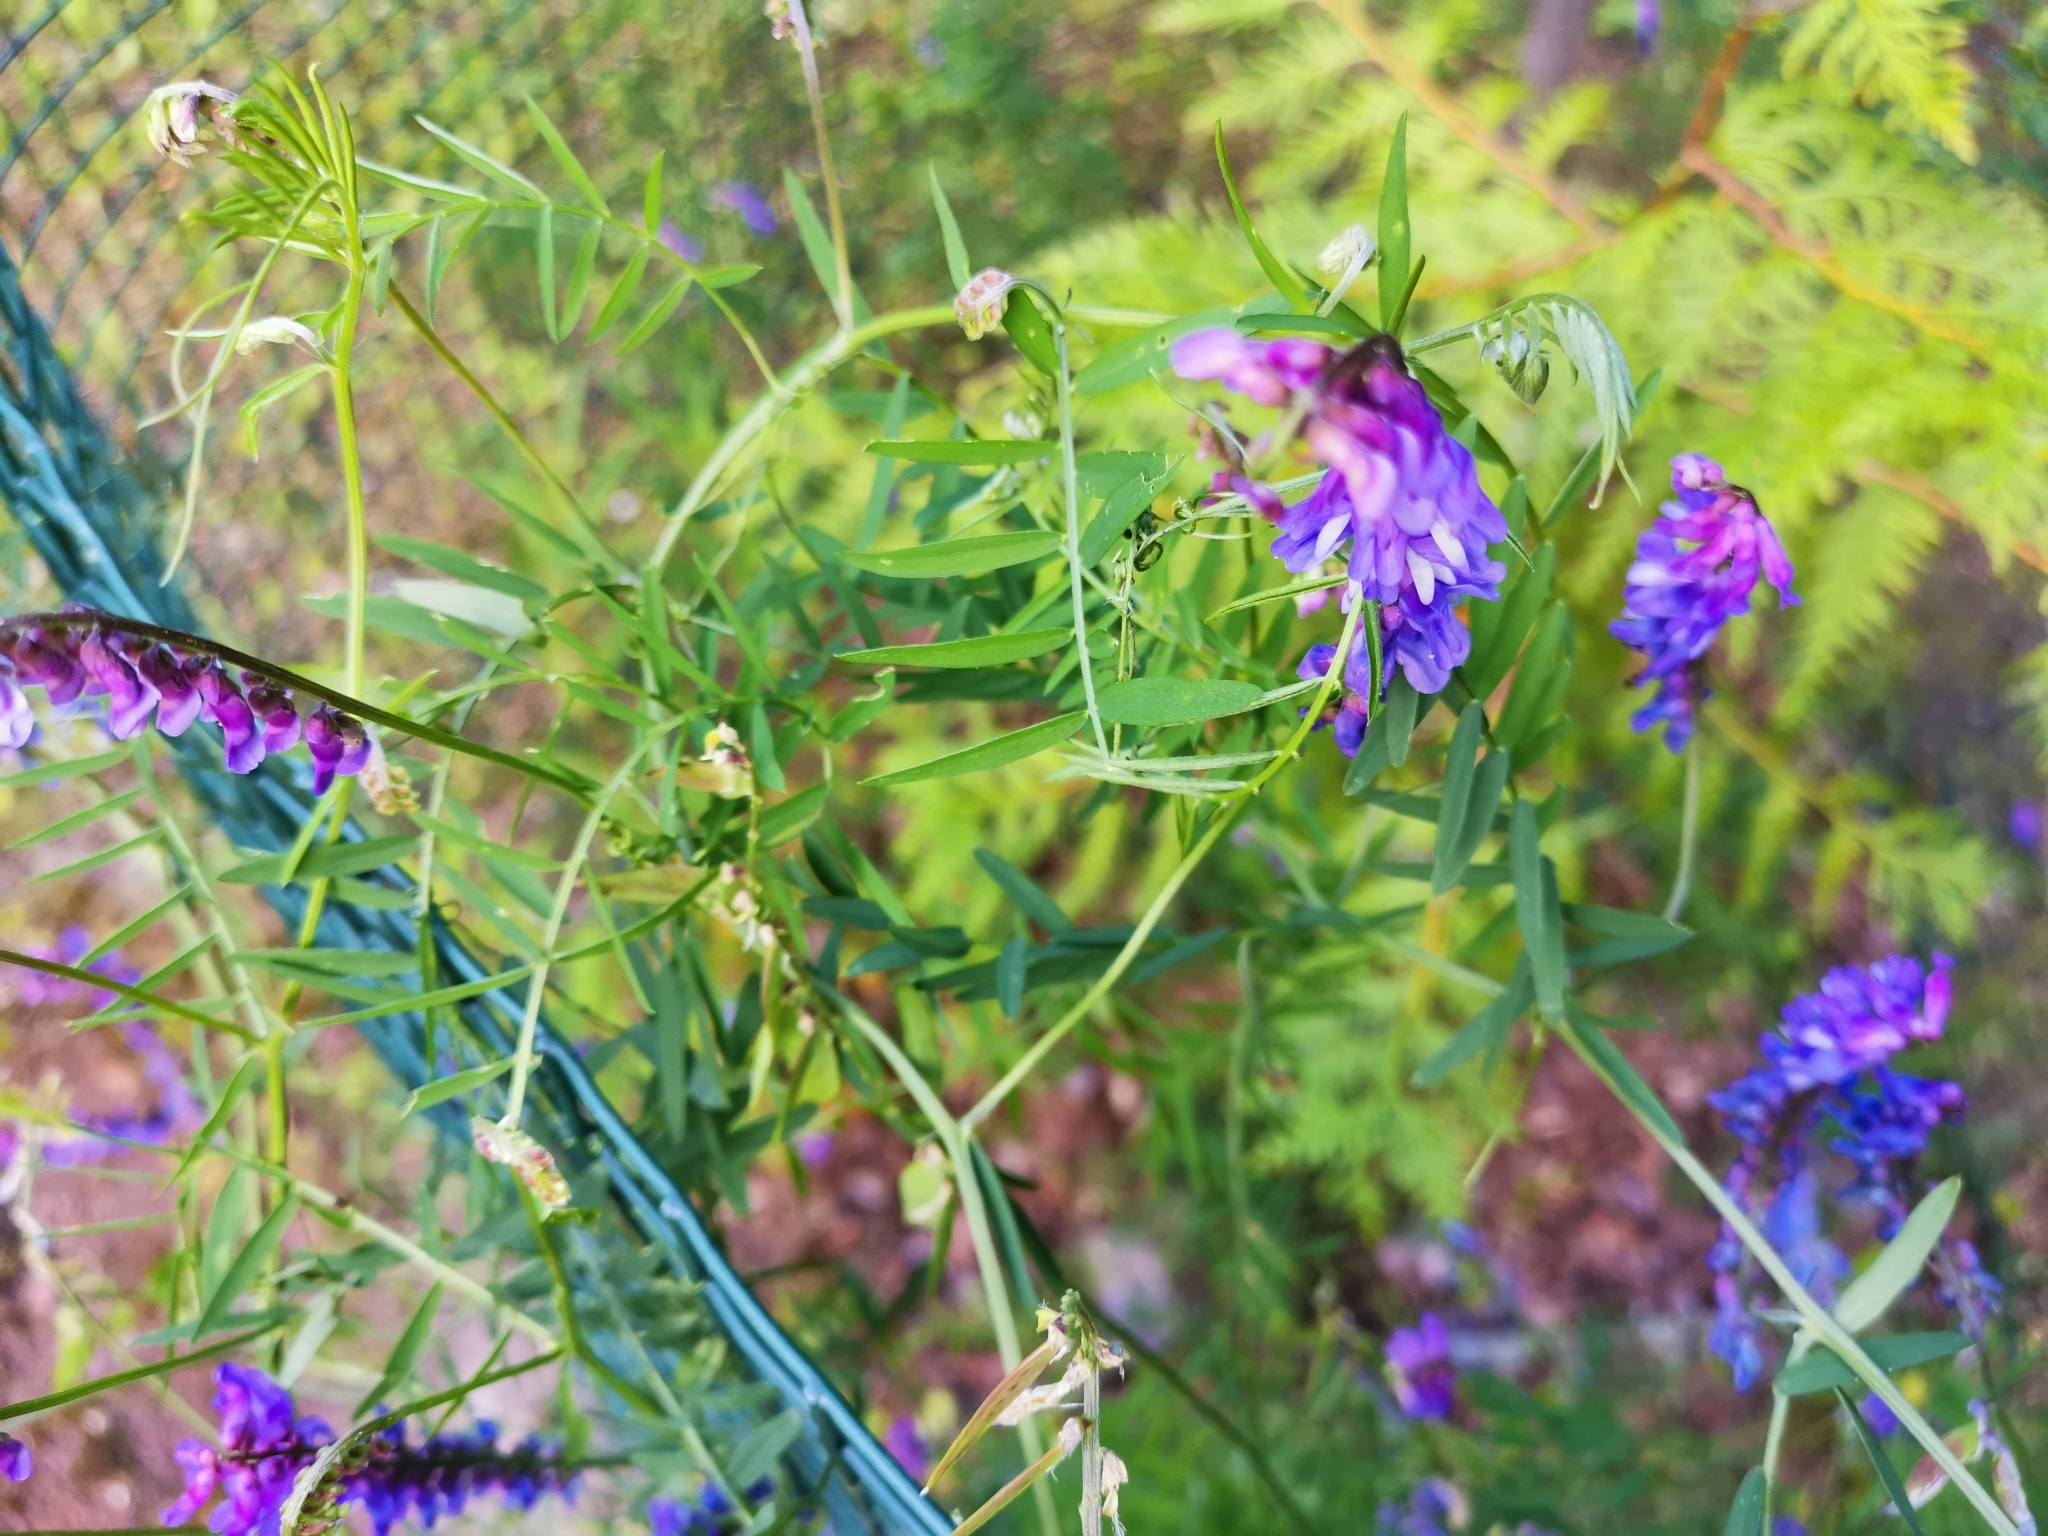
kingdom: Plantae
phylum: Tracheophyta
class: Magnoliopsida
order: Fabales
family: Fabaceae
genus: Vicia
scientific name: Vicia cracca
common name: Bird vetch
